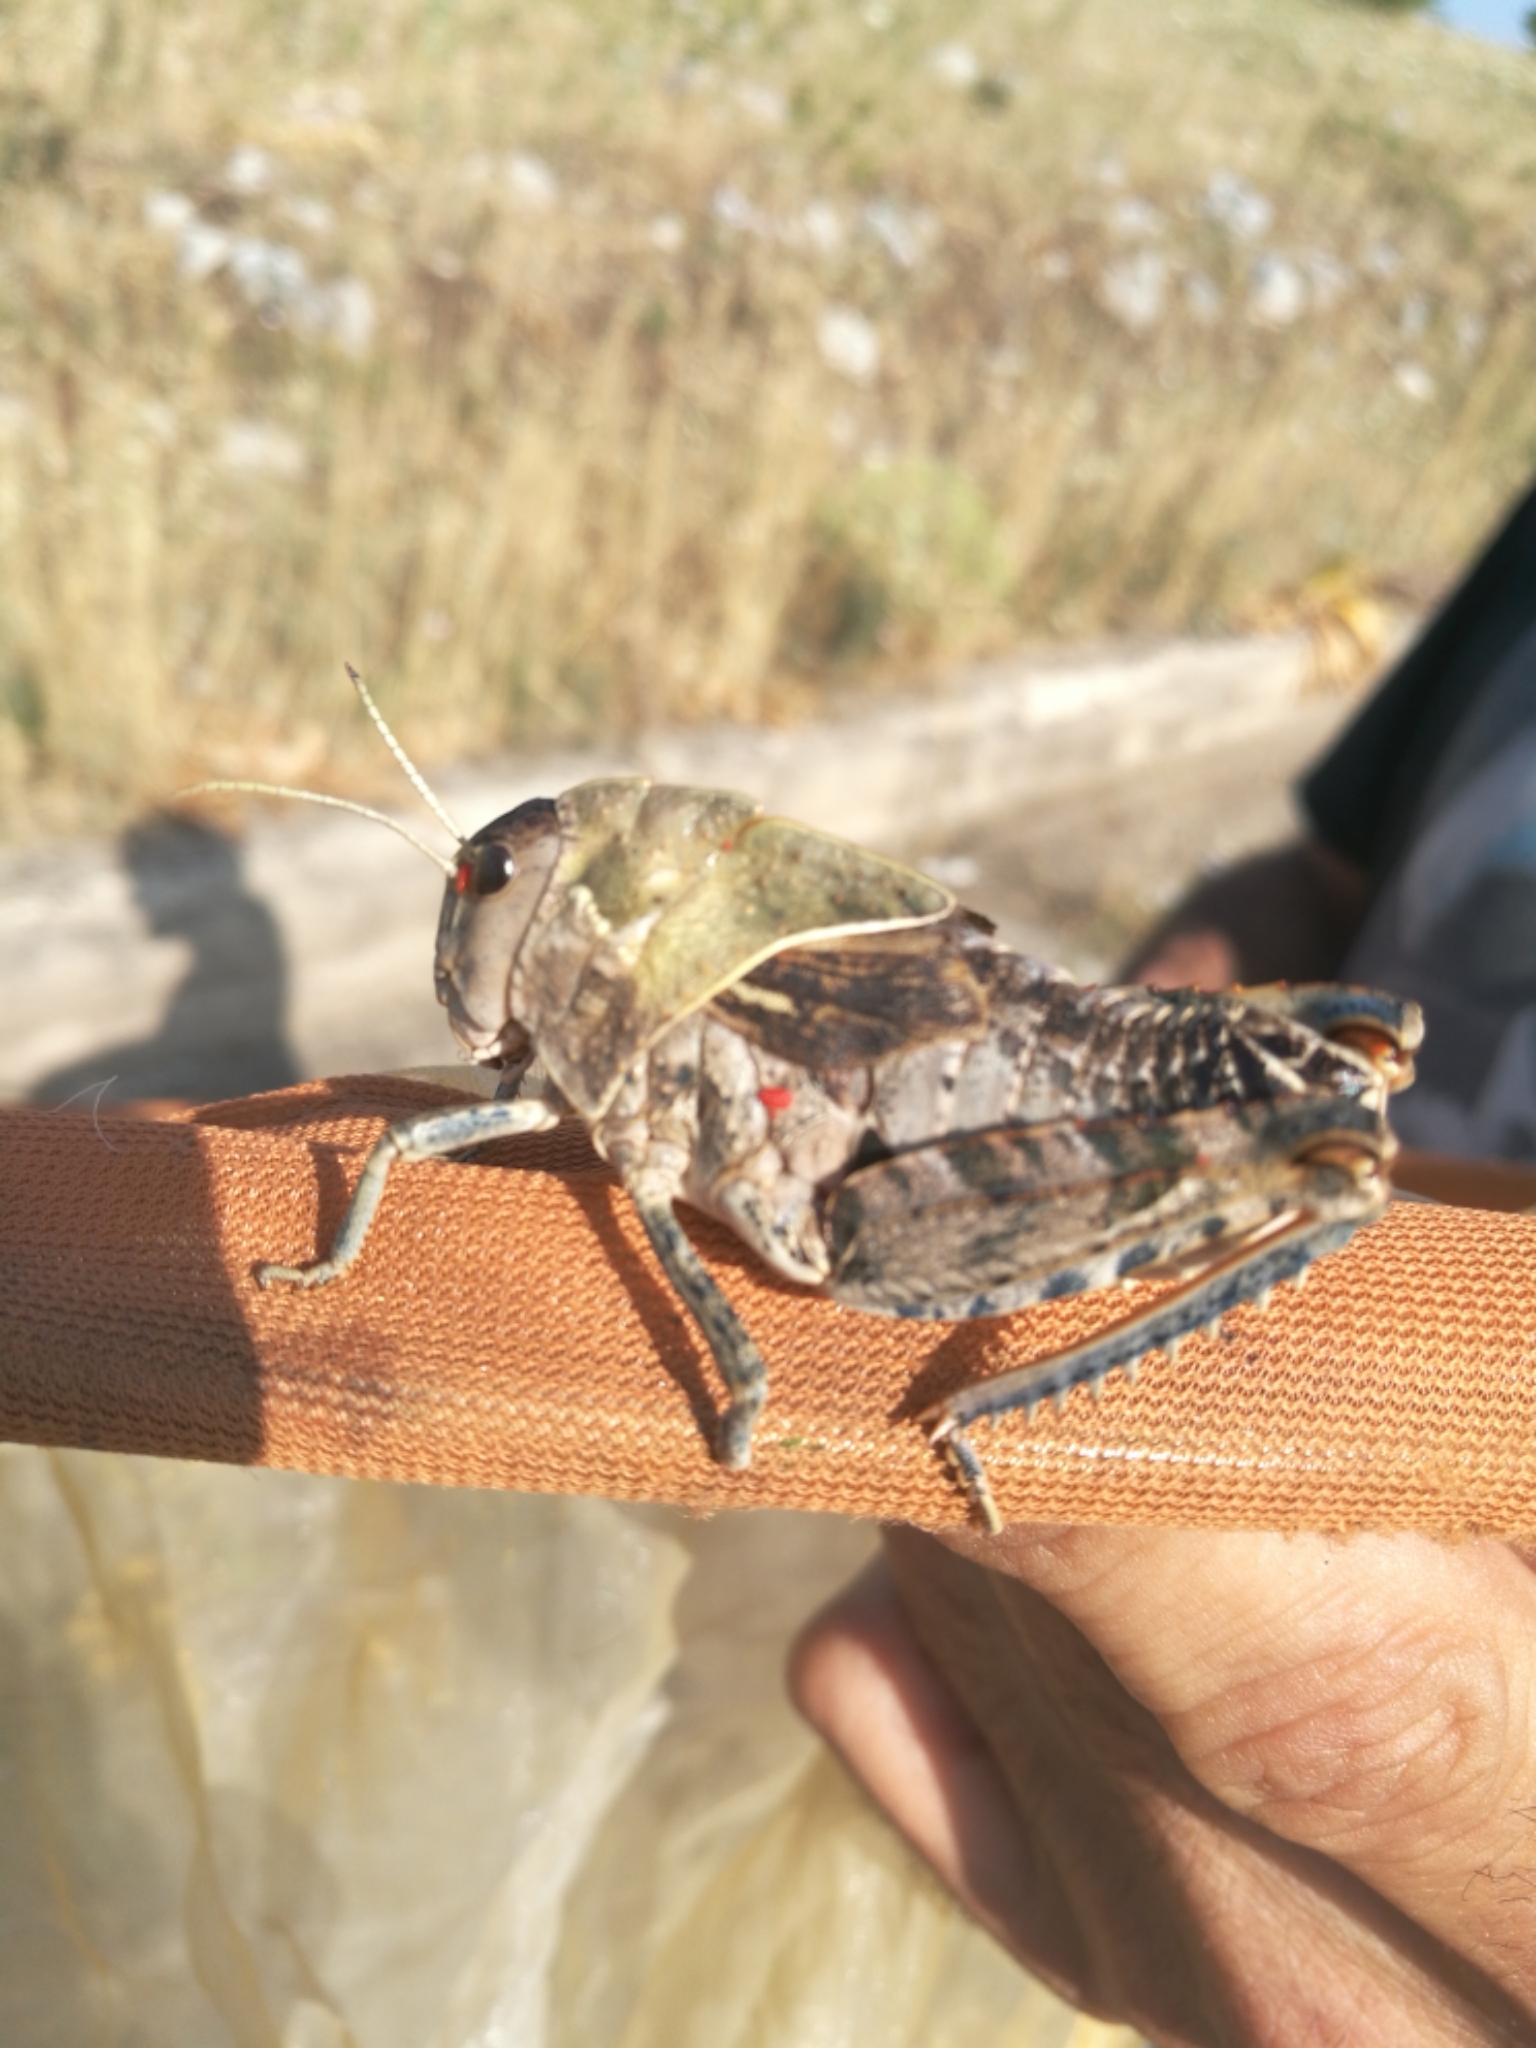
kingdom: Animalia
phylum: Arthropoda
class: Insecta
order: Orthoptera
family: Pamphagidae
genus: Prionotropis
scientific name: Prionotropis appula
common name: Apulian stone grasshopper
